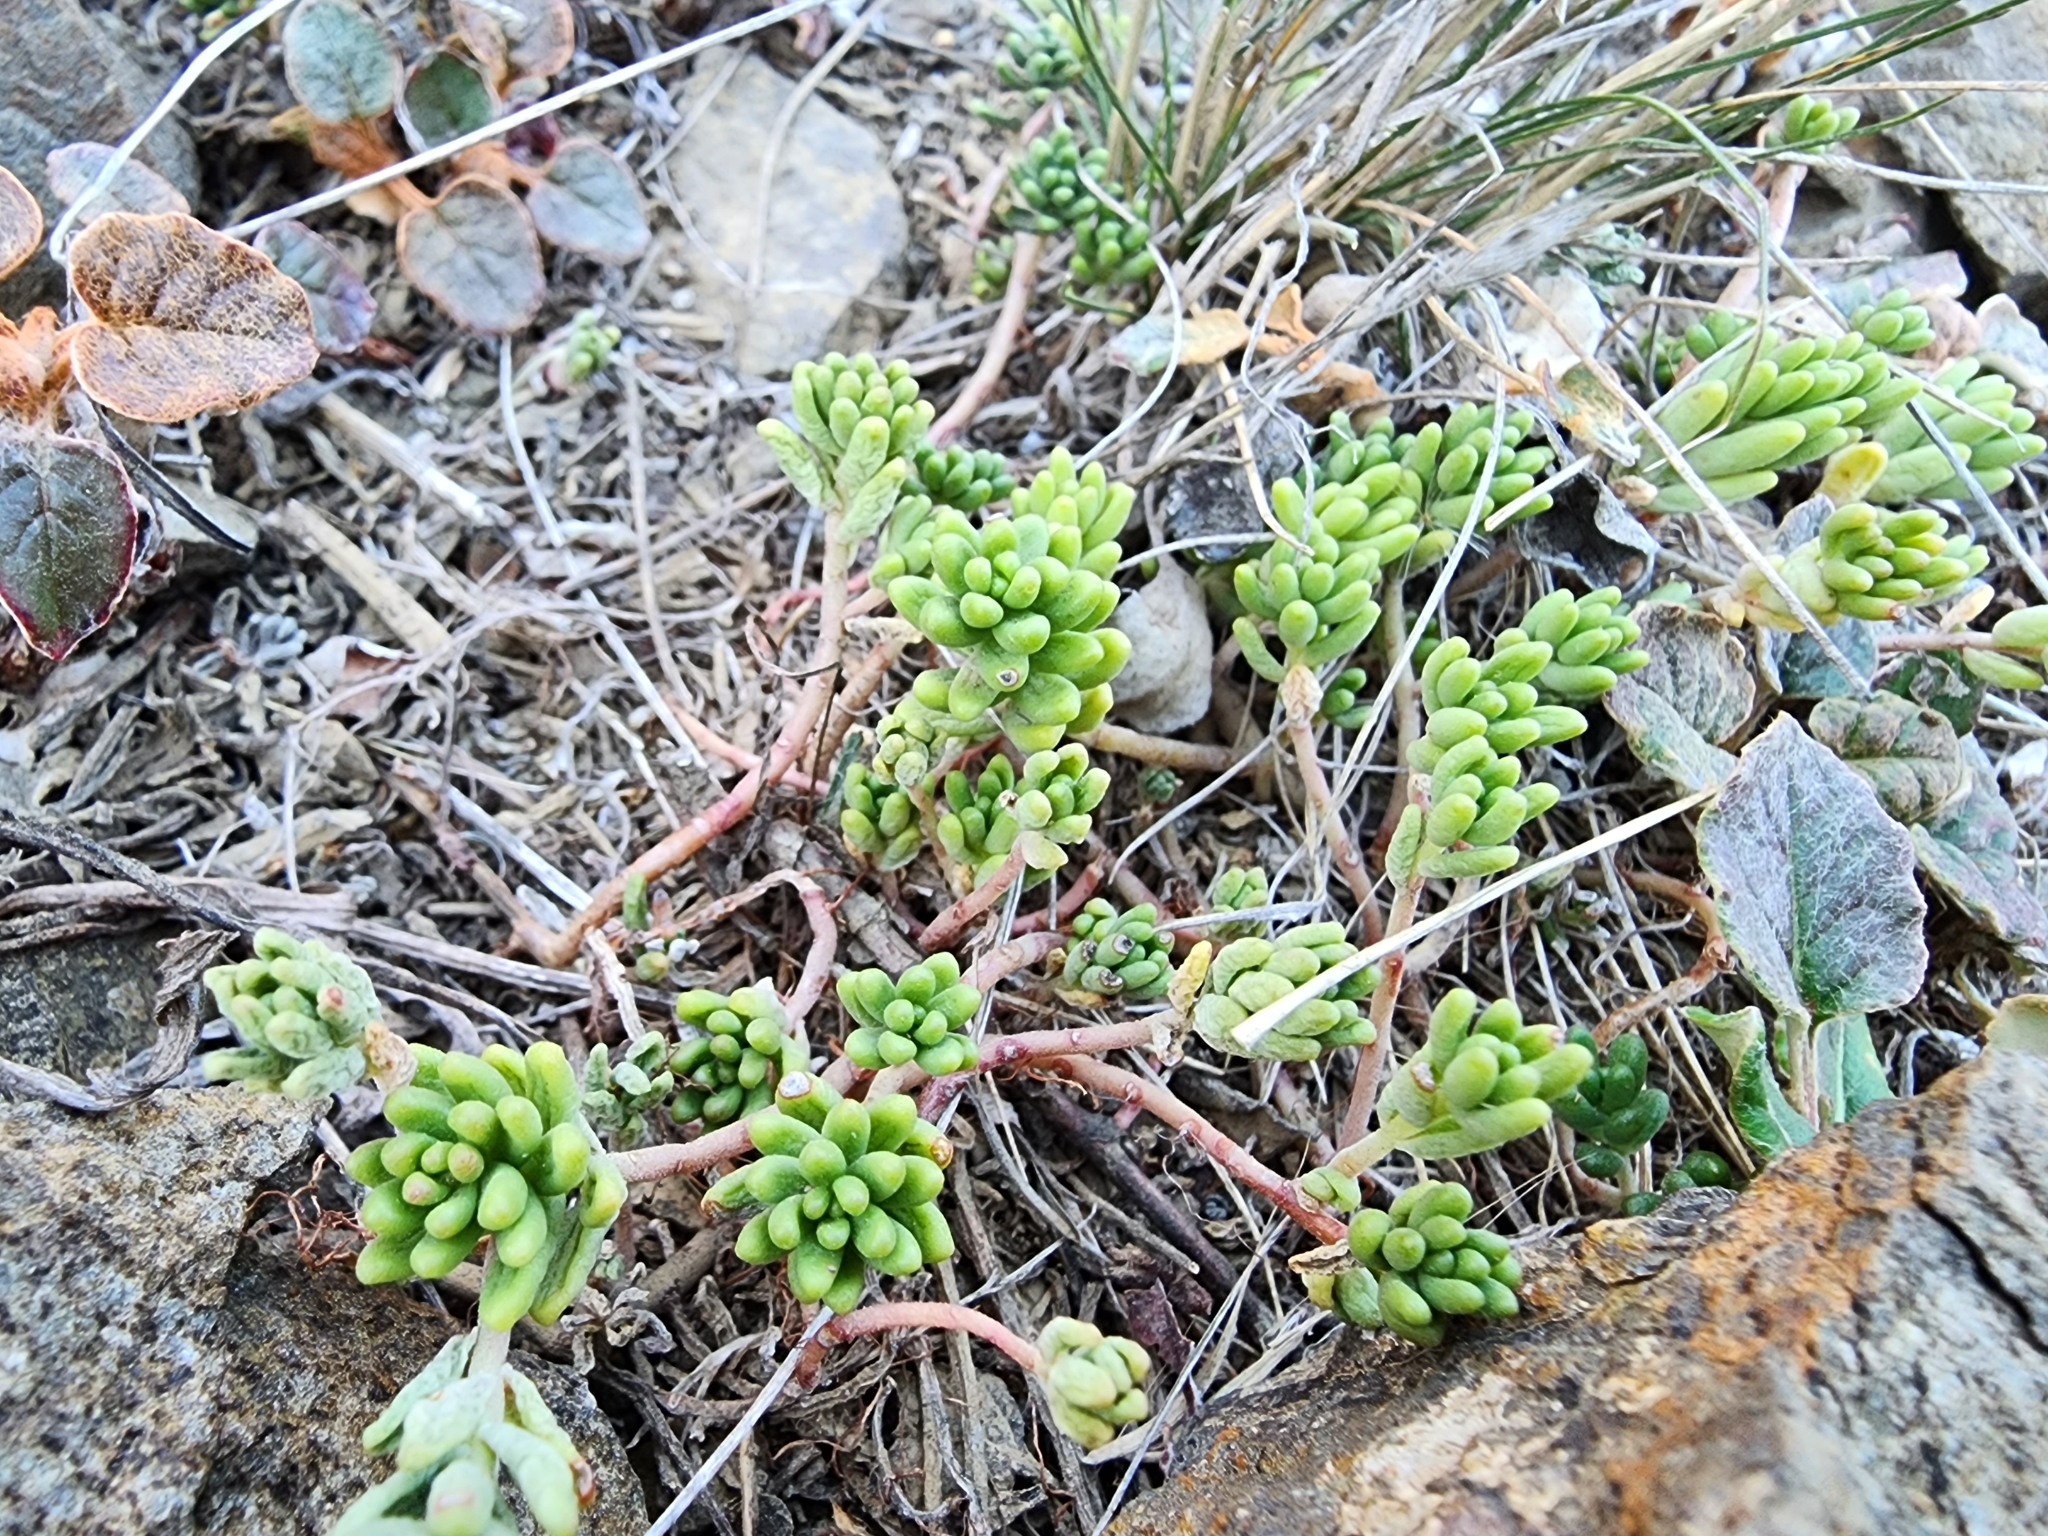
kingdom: Plantae
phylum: Tracheophyta
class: Magnoliopsida
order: Saxifragales
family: Crassulaceae
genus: Sedum
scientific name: Sedum album
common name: White stonecrop
